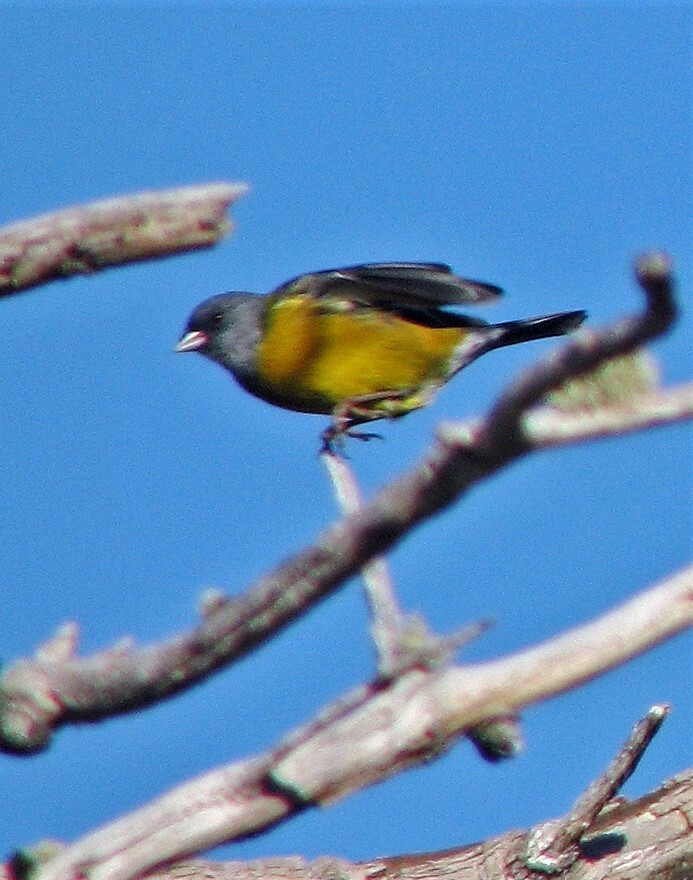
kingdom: Animalia
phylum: Chordata
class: Aves
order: Passeriformes
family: Thraupidae
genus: Phrygilus
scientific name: Phrygilus patagonicus
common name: Patagonian sierra finch
